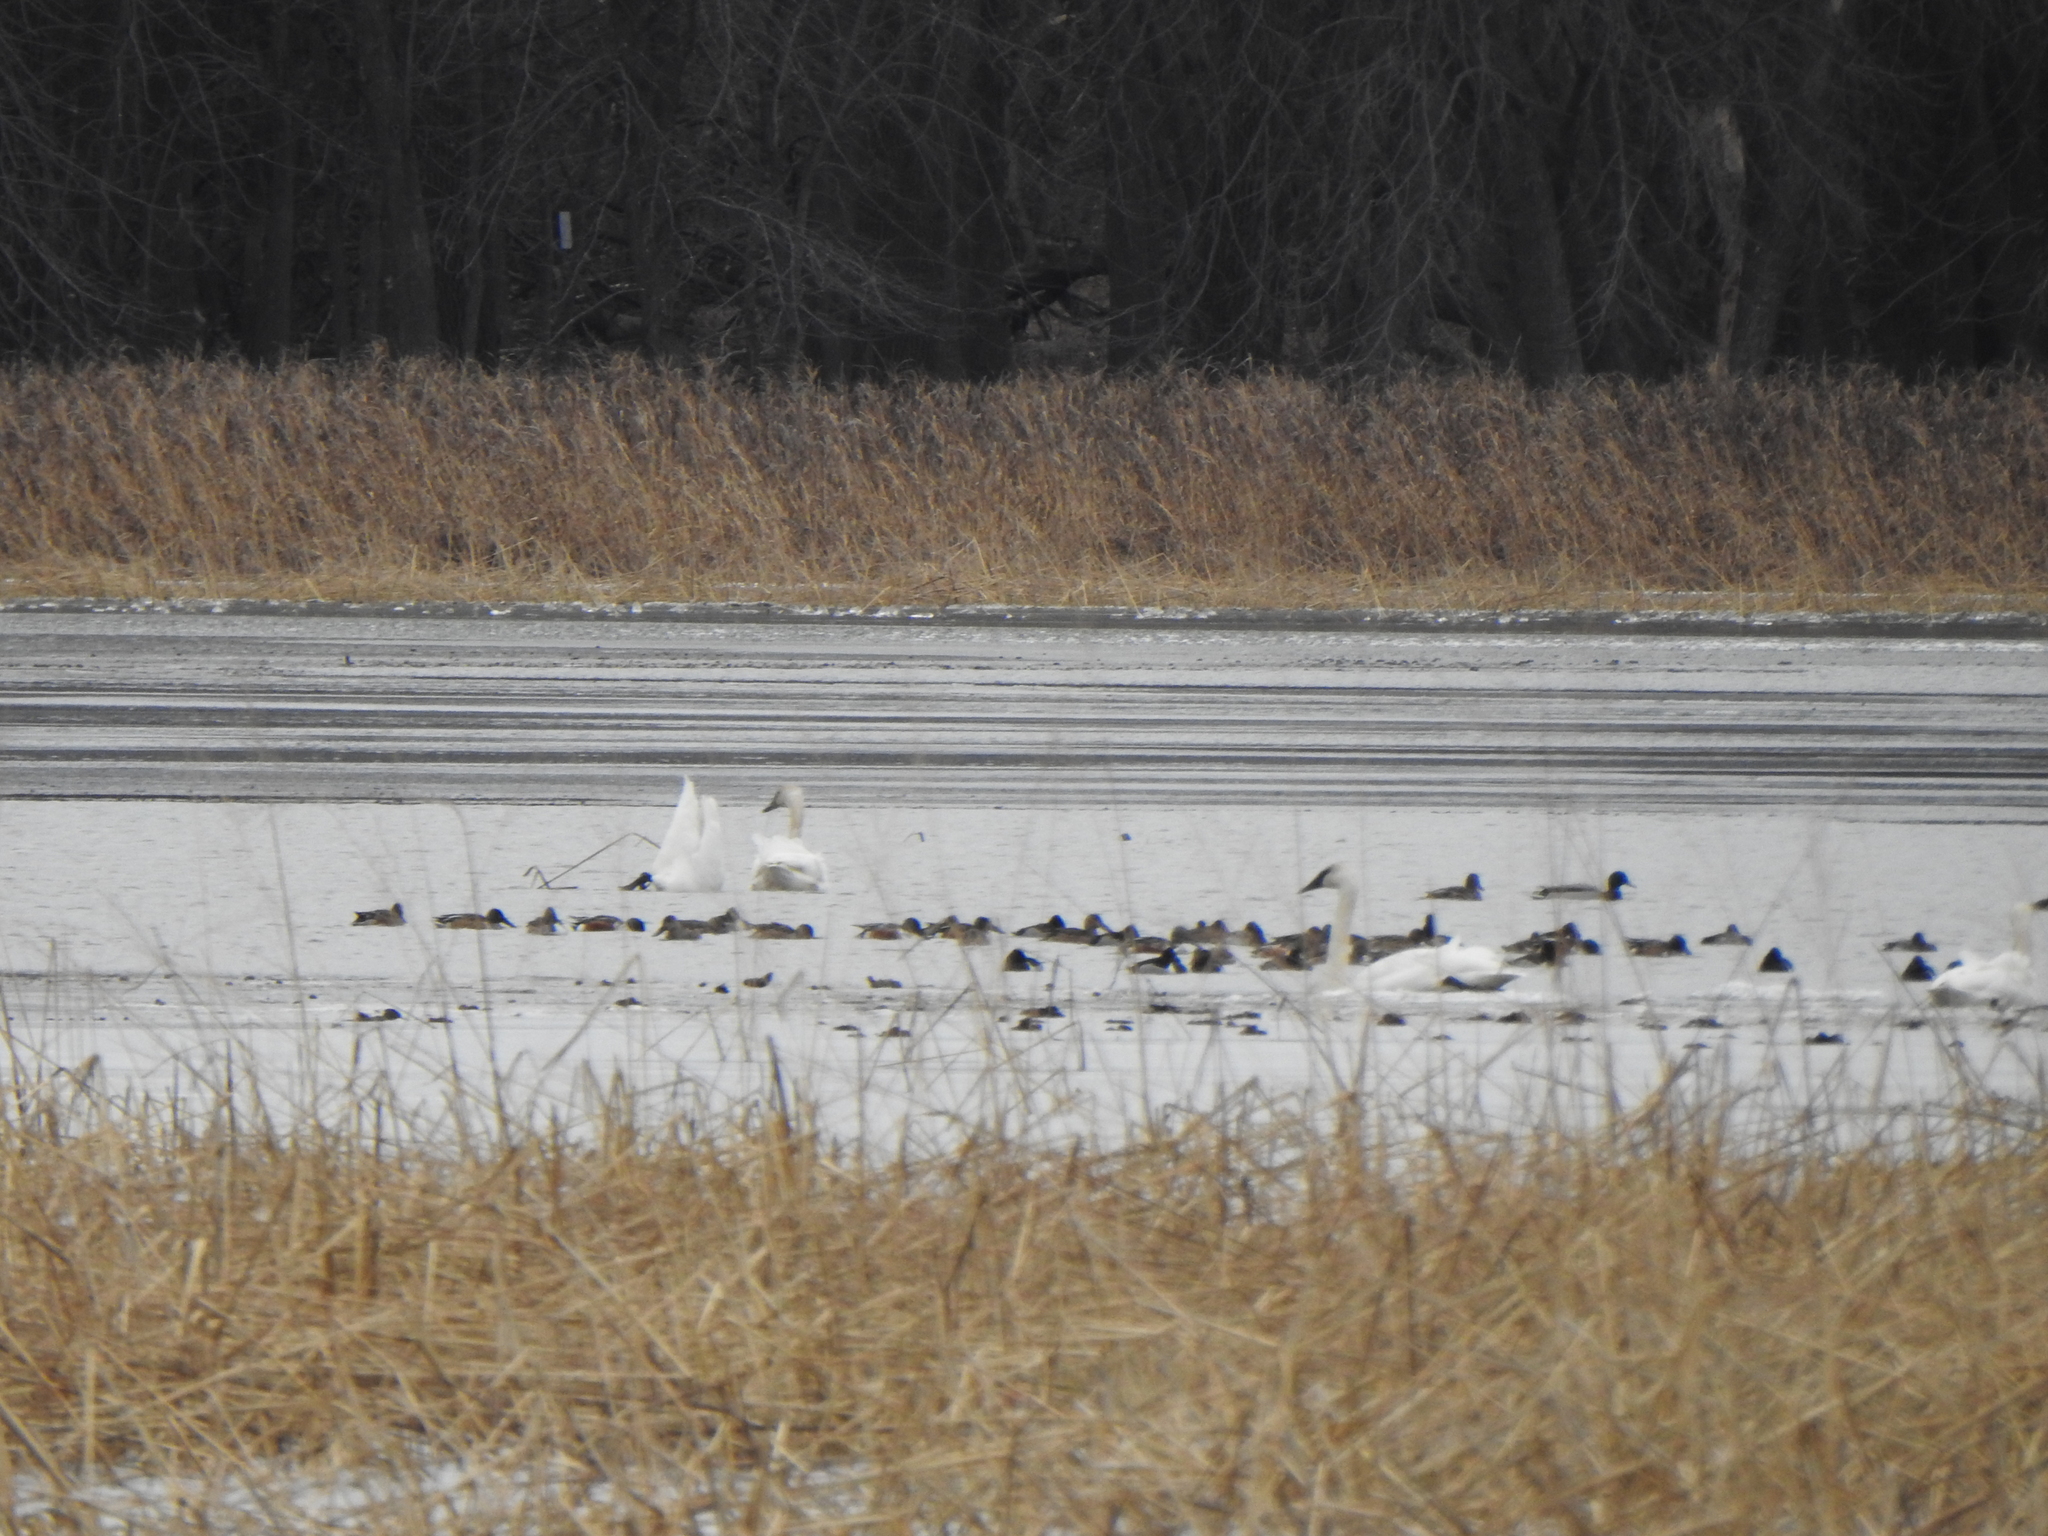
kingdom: Animalia
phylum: Chordata
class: Aves
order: Anseriformes
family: Anatidae
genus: Spatula
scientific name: Spatula clypeata
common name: Northern shoveler
